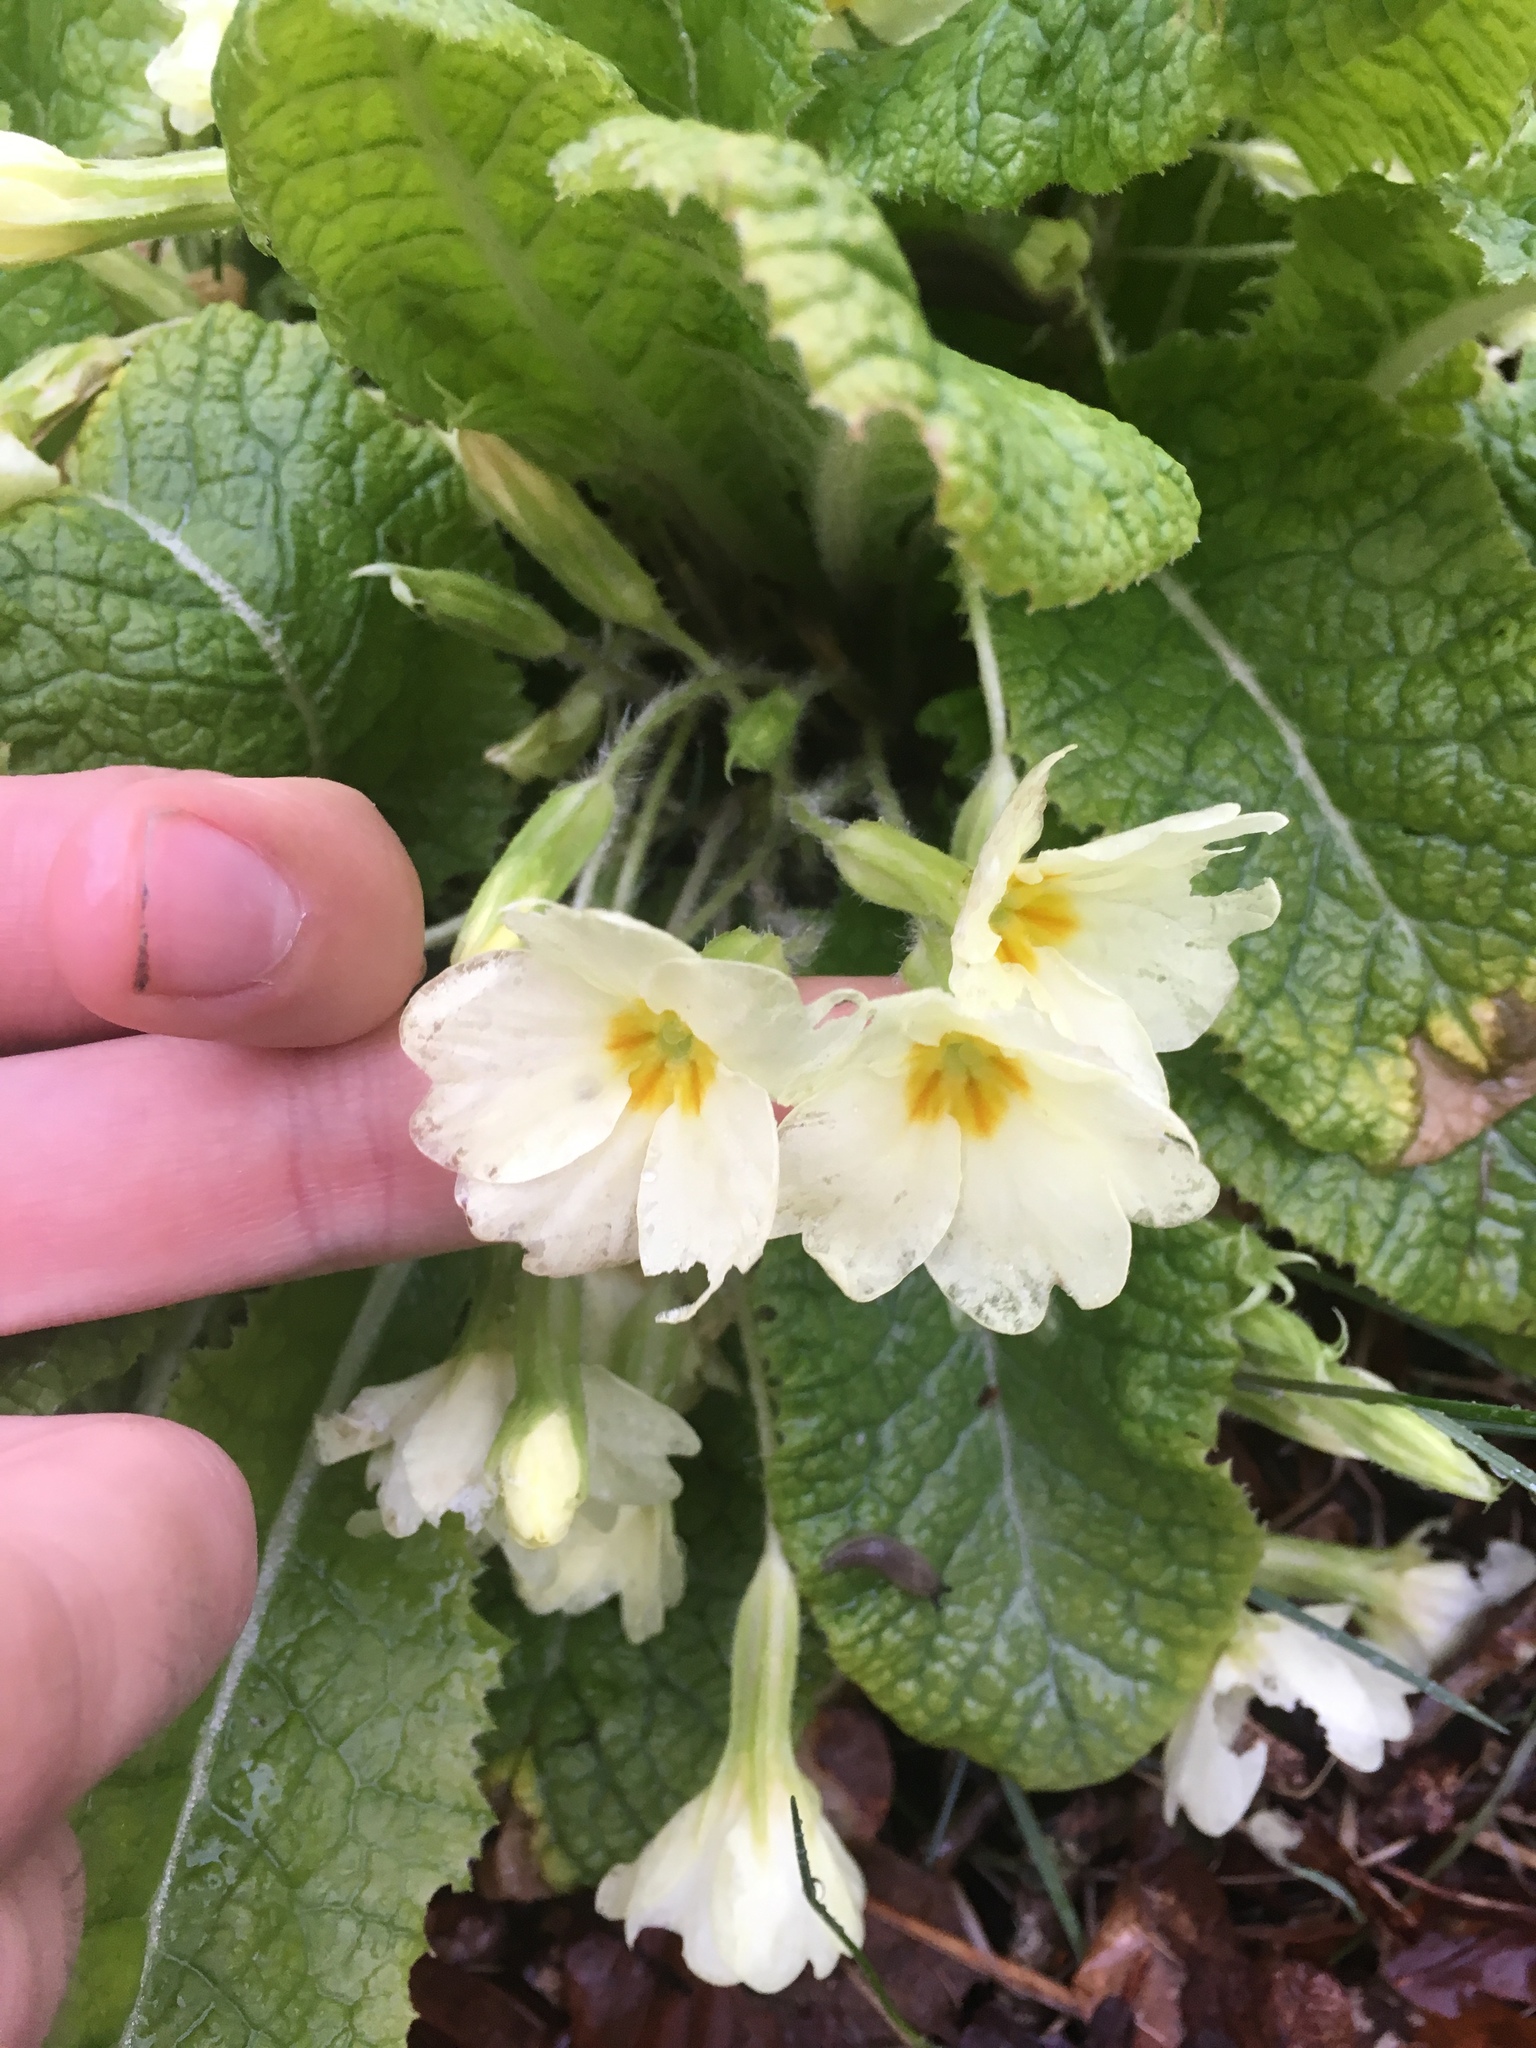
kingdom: Plantae
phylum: Tracheophyta
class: Magnoliopsida
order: Ericales
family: Primulaceae
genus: Primula
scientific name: Primula vulgaris
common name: Primrose
